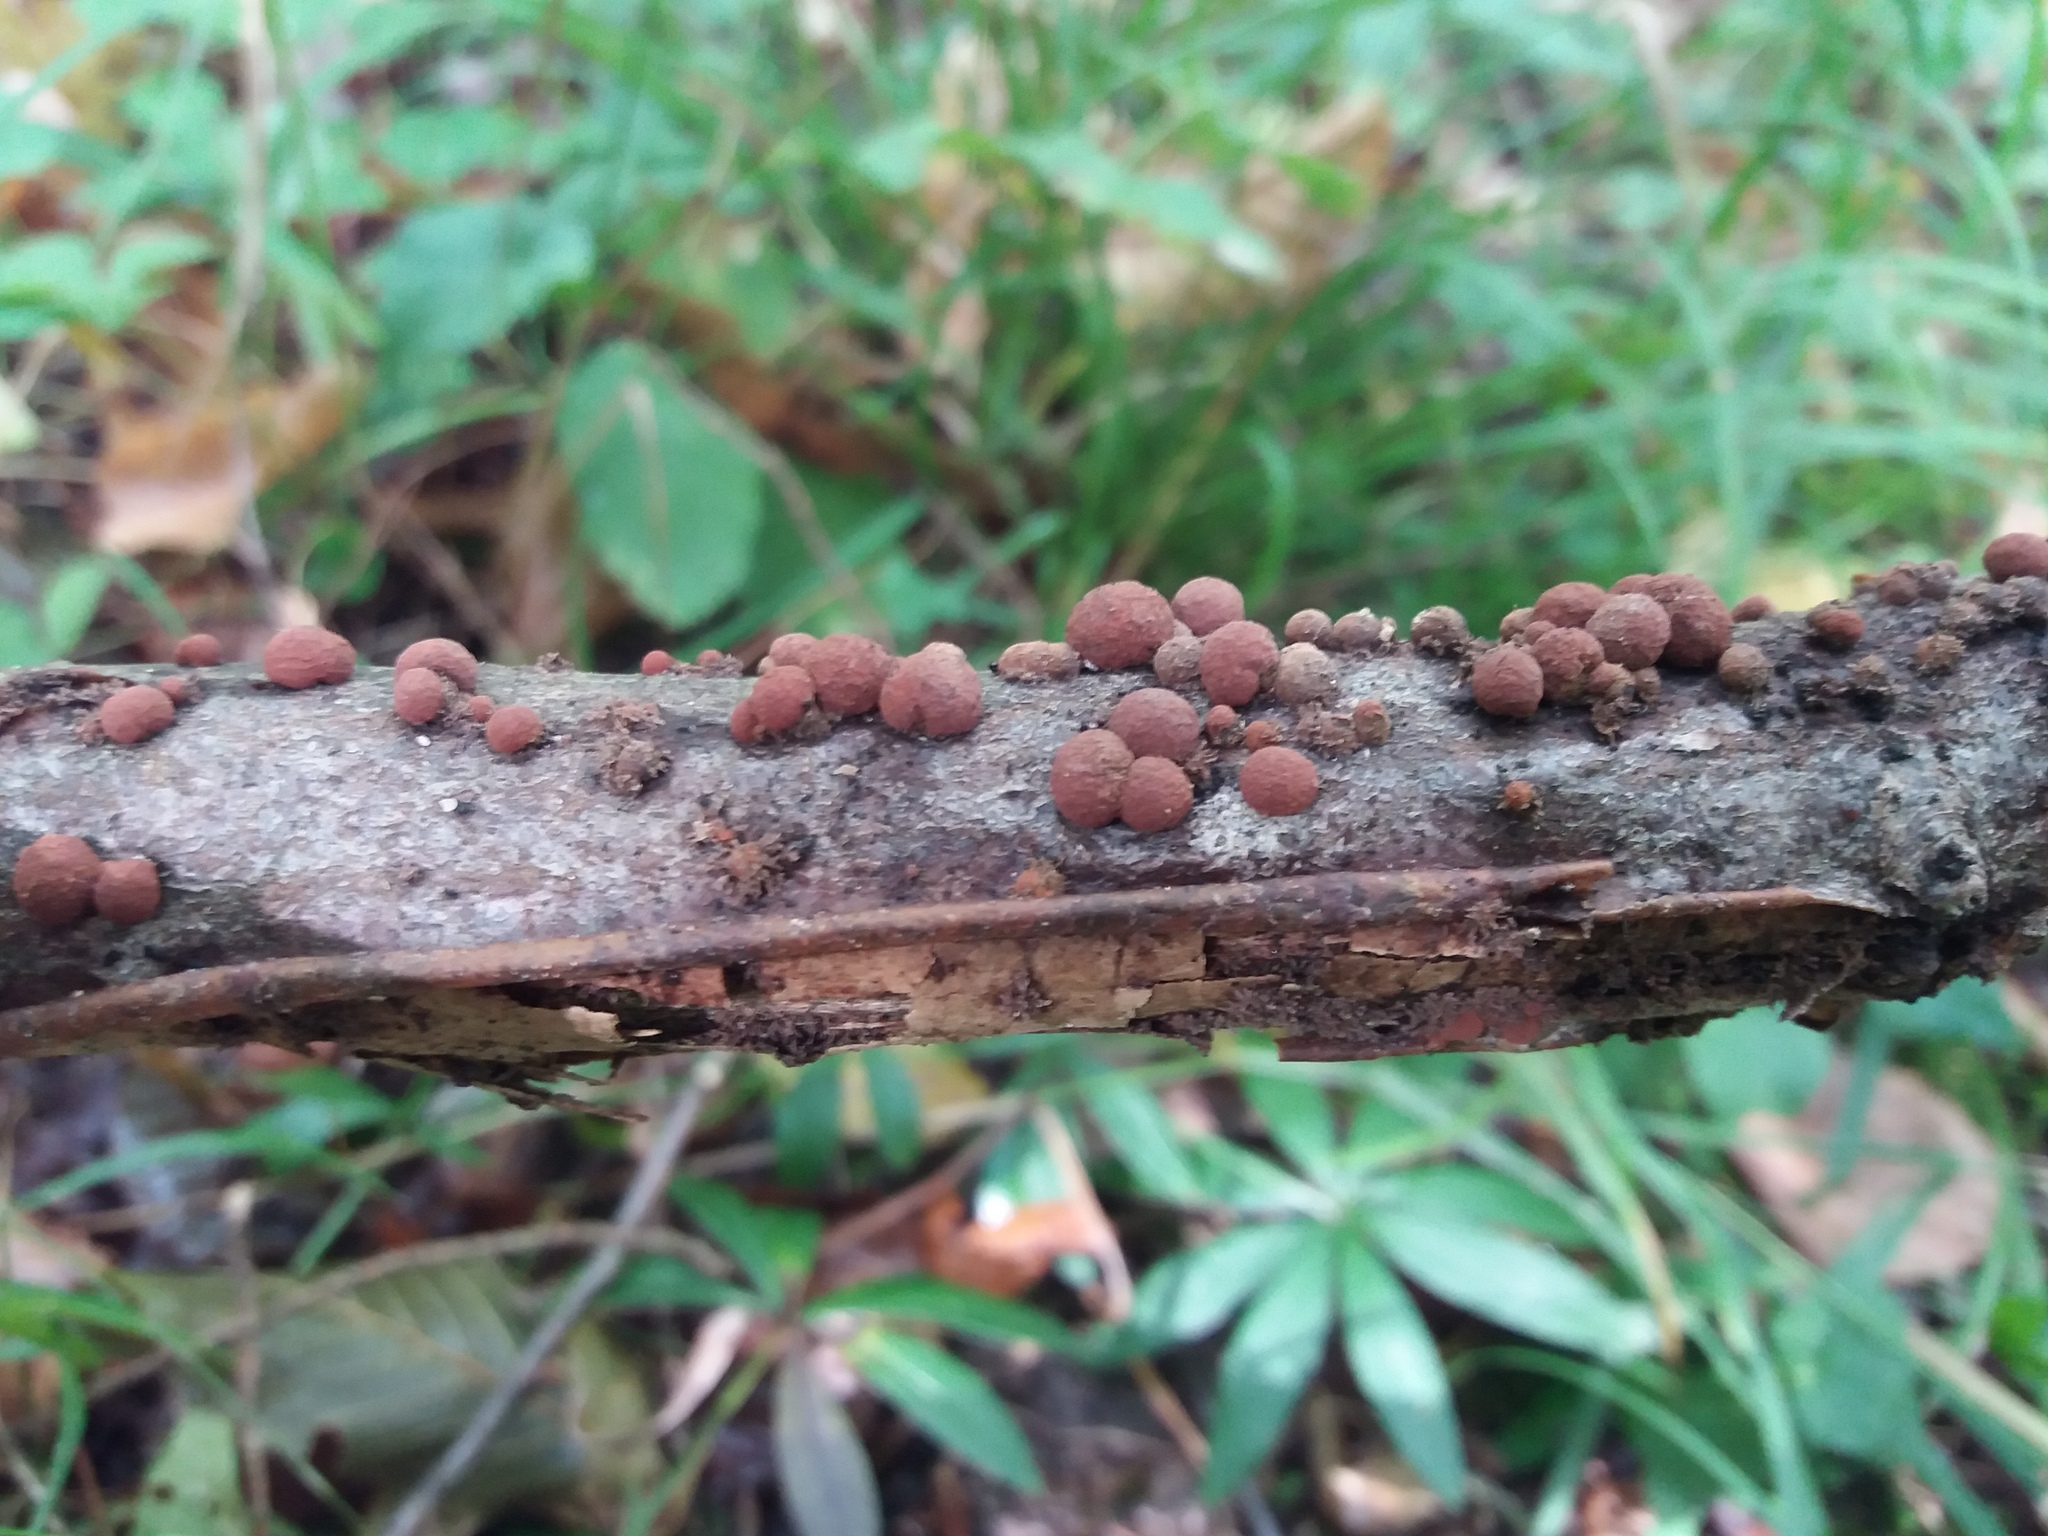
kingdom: Fungi
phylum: Ascomycota
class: Sordariomycetes
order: Xylariales
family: Hypoxylaceae
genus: Hypoxylon
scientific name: Hypoxylon fragiforme
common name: Beech woodwart
